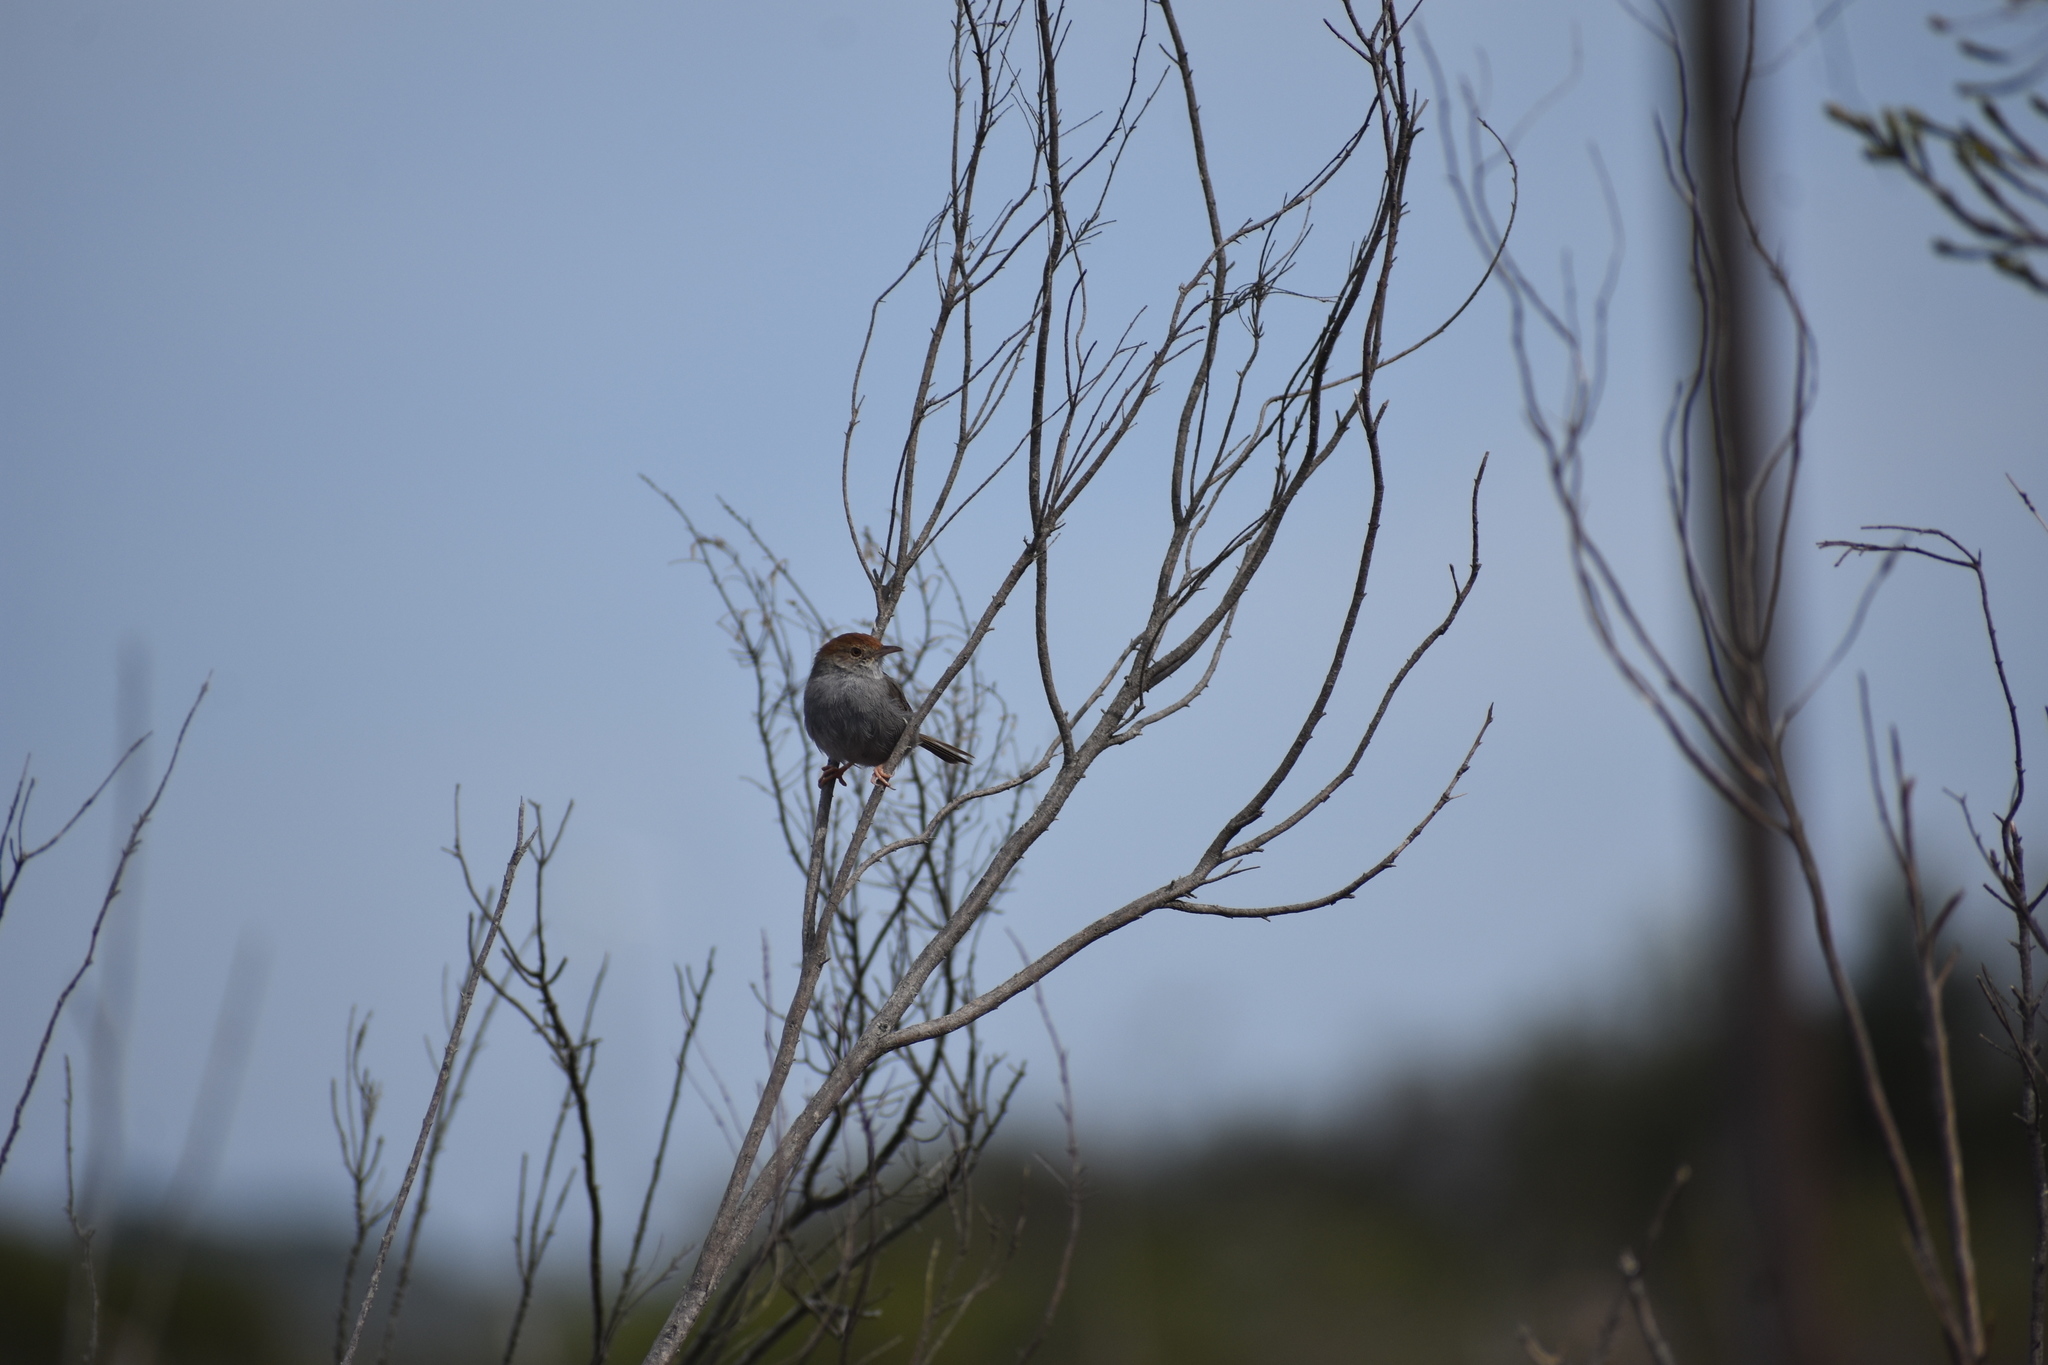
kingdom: Animalia
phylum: Chordata
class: Aves
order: Passeriformes
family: Cisticolidae
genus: Cisticola
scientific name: Cisticola fulvicapilla
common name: Neddicky
